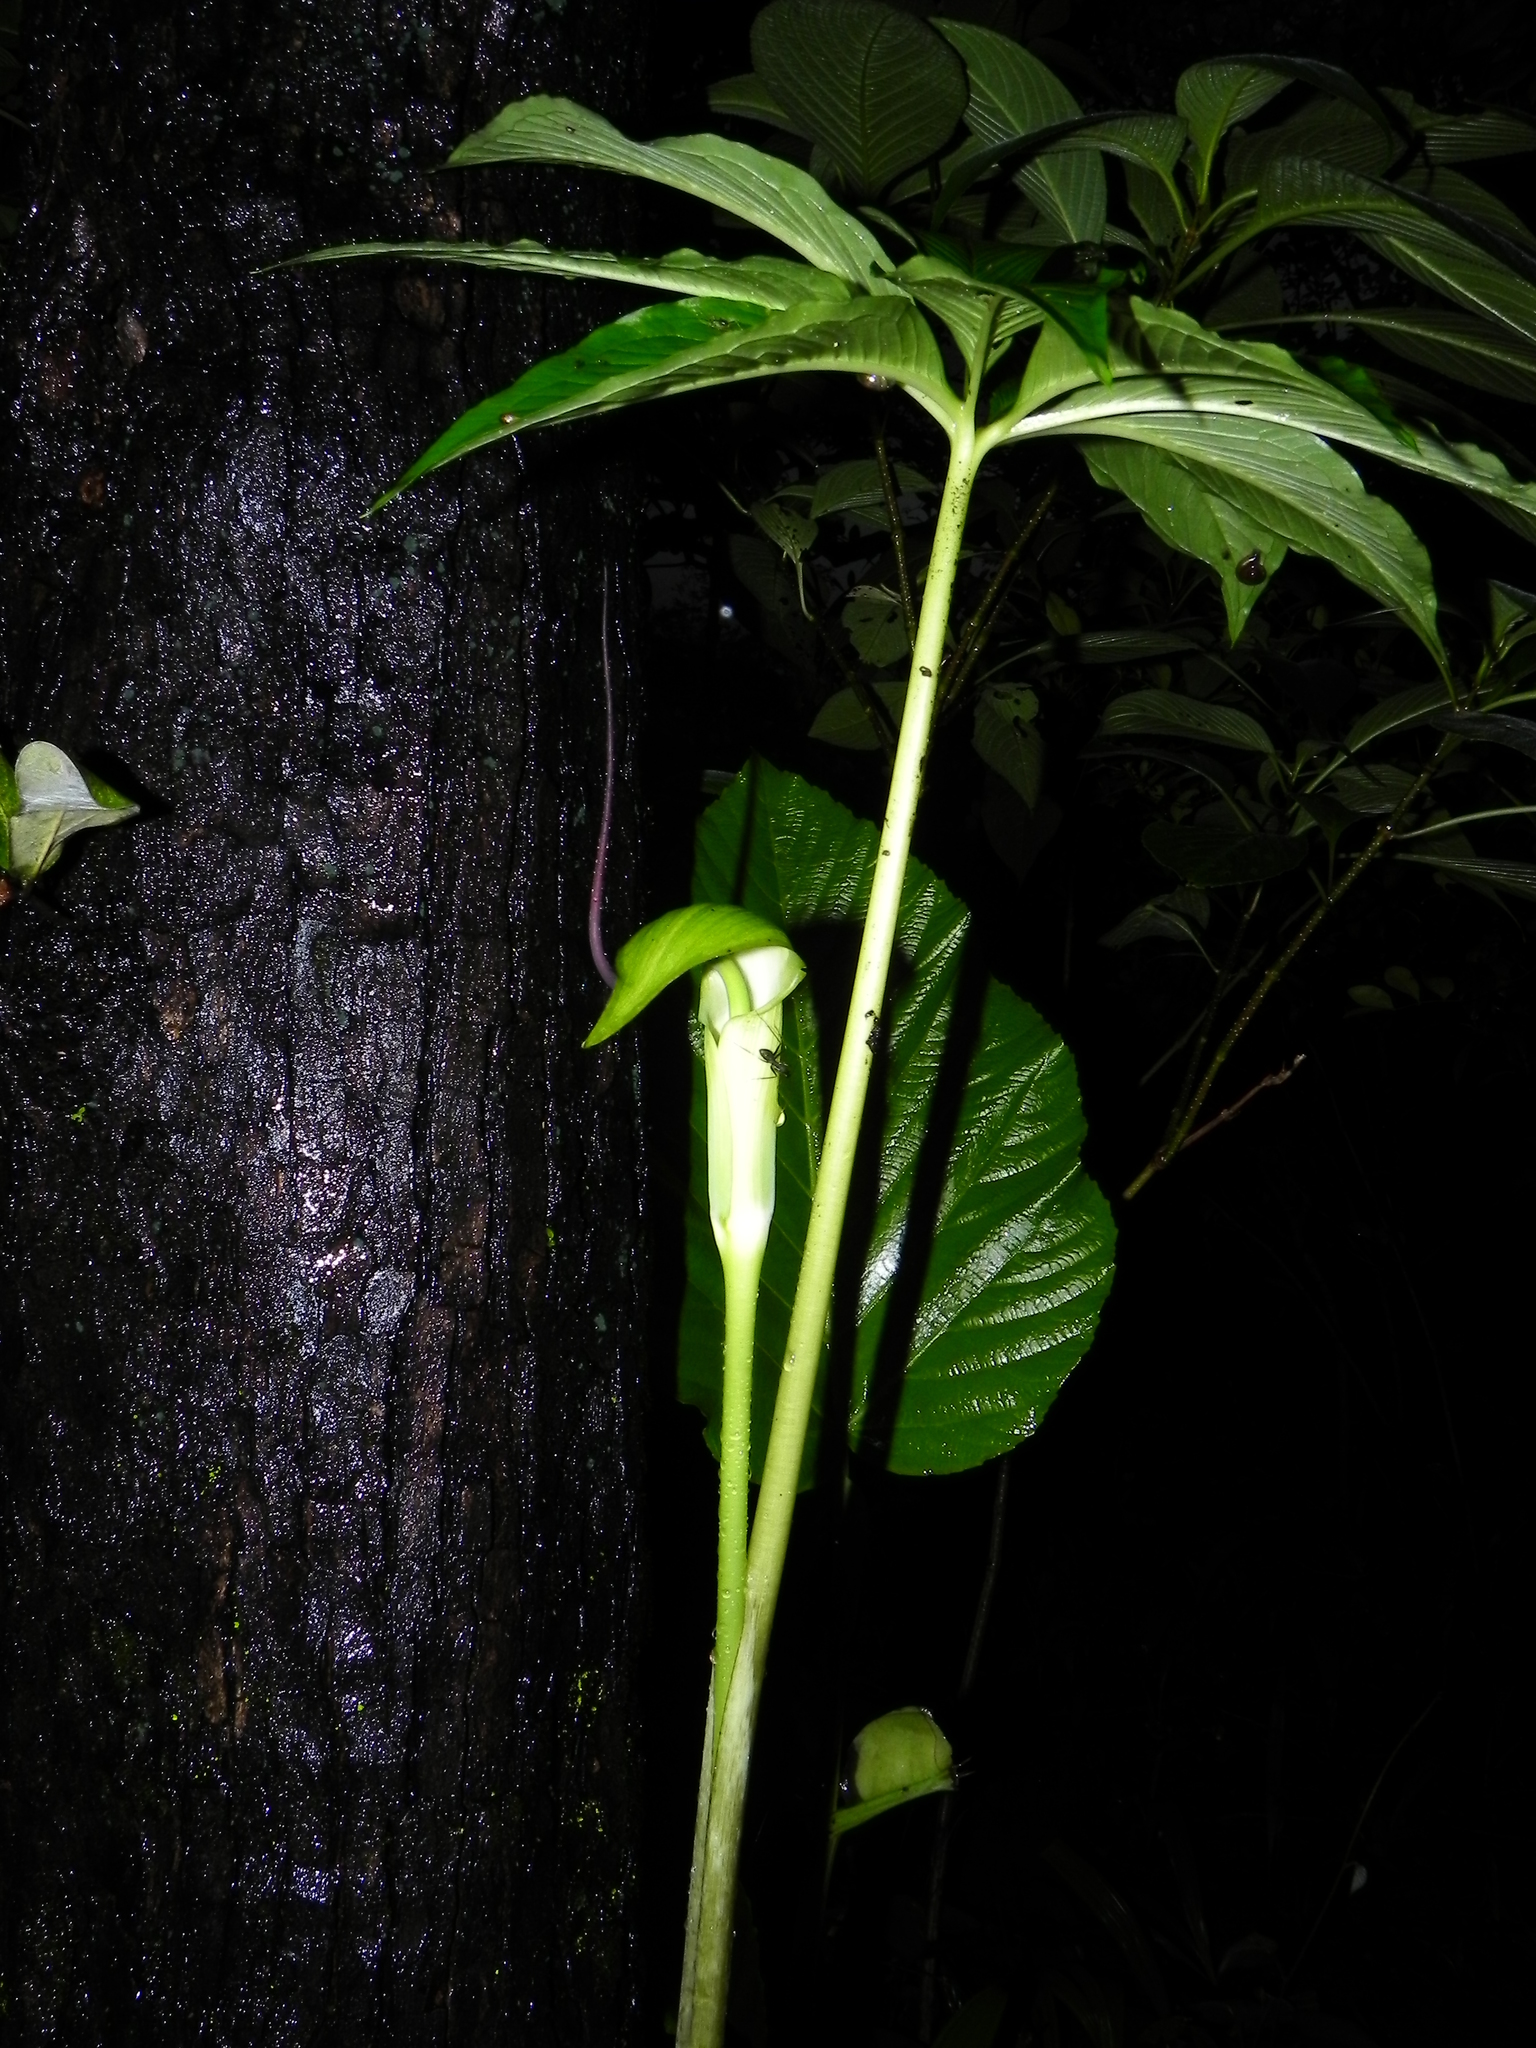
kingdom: Plantae
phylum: Tracheophyta
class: Liliopsida
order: Alismatales
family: Araceae
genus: Arisaema
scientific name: Arisaema tortuosum
